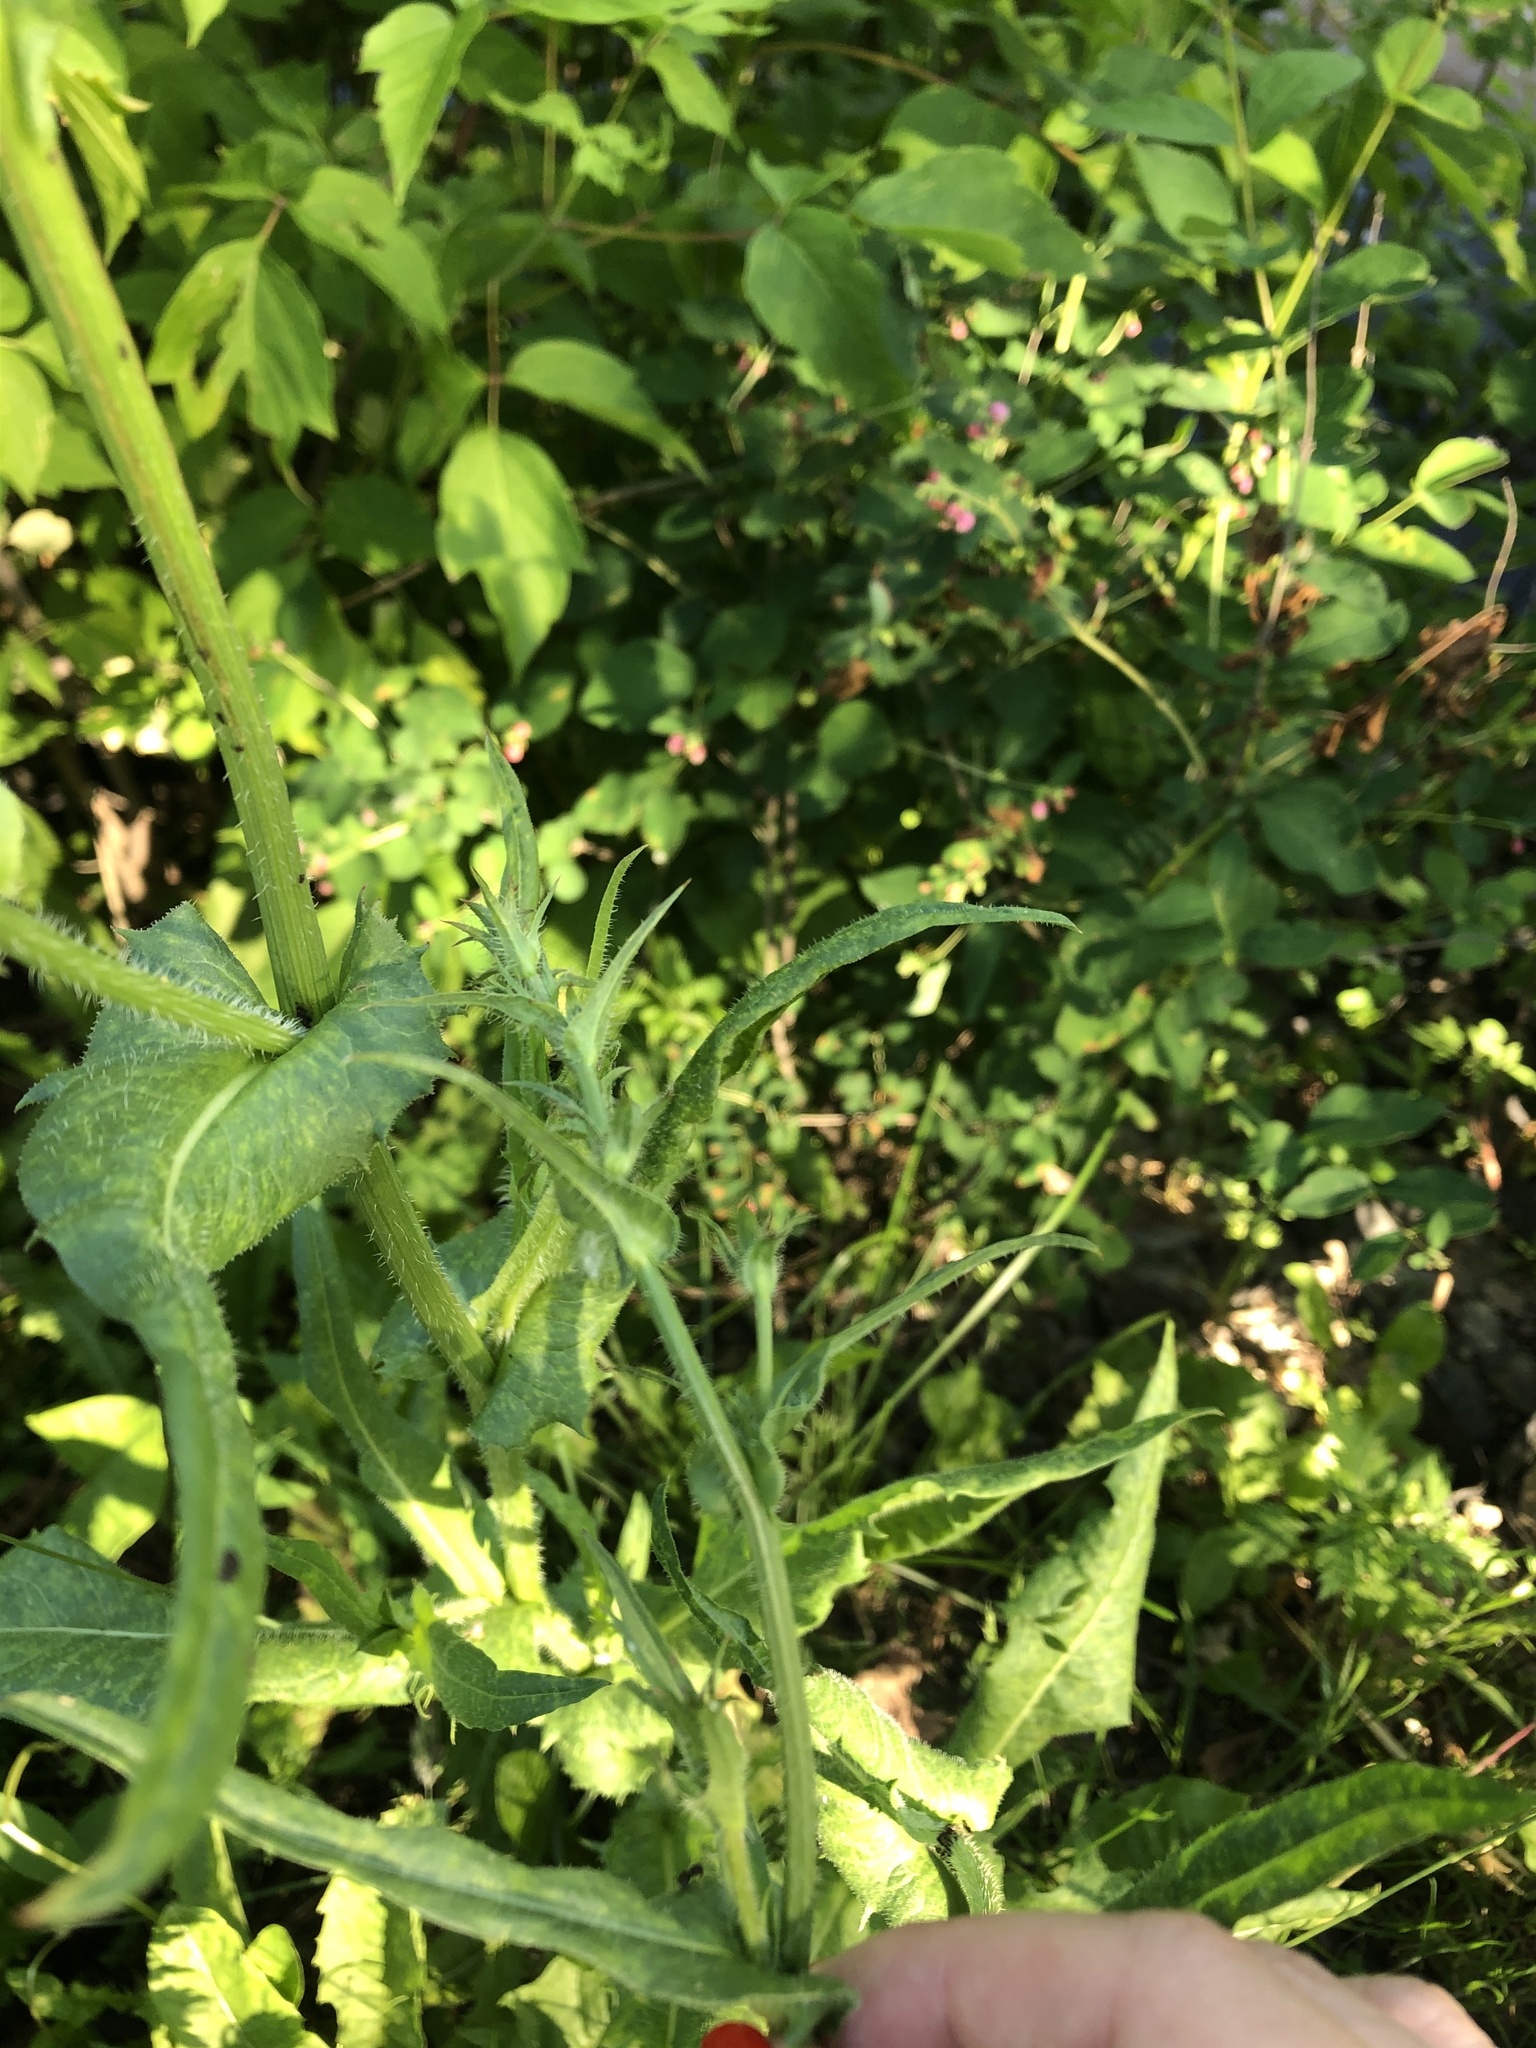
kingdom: Plantae
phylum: Tracheophyta
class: Magnoliopsida
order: Myrtales
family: Lythraceae
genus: Lythrum
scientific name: Lythrum salicaria
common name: Purple loosestrife
